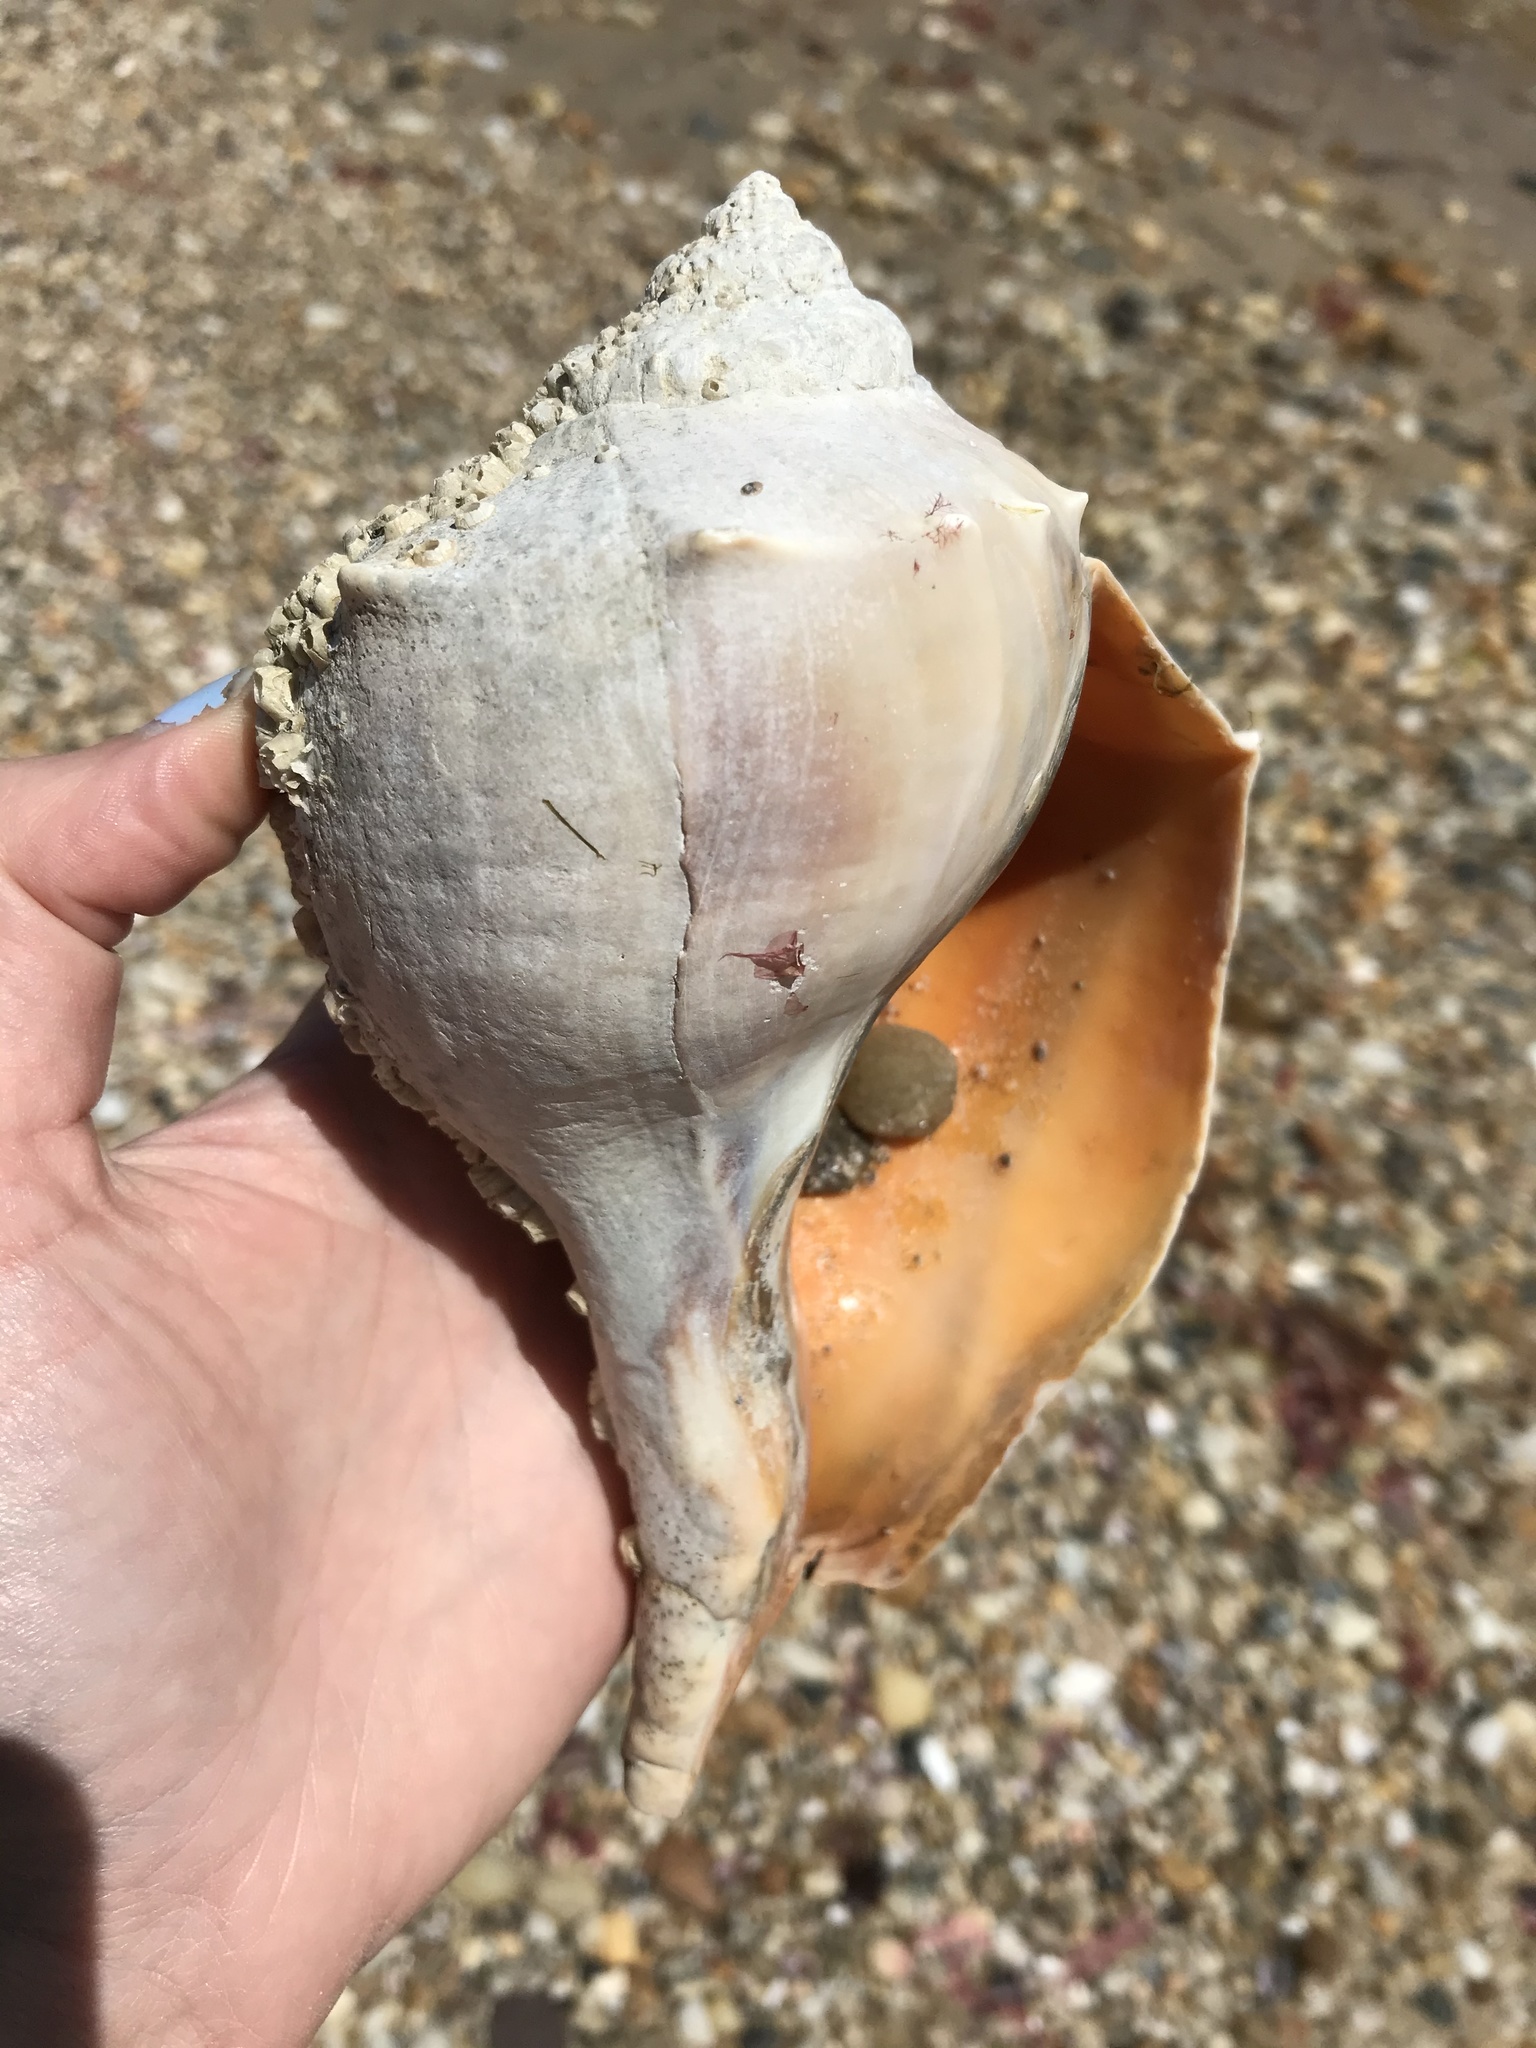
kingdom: Animalia
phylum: Mollusca
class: Gastropoda
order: Neogastropoda
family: Busyconidae
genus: Busycon
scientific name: Busycon carica
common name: Knobbed whelk
